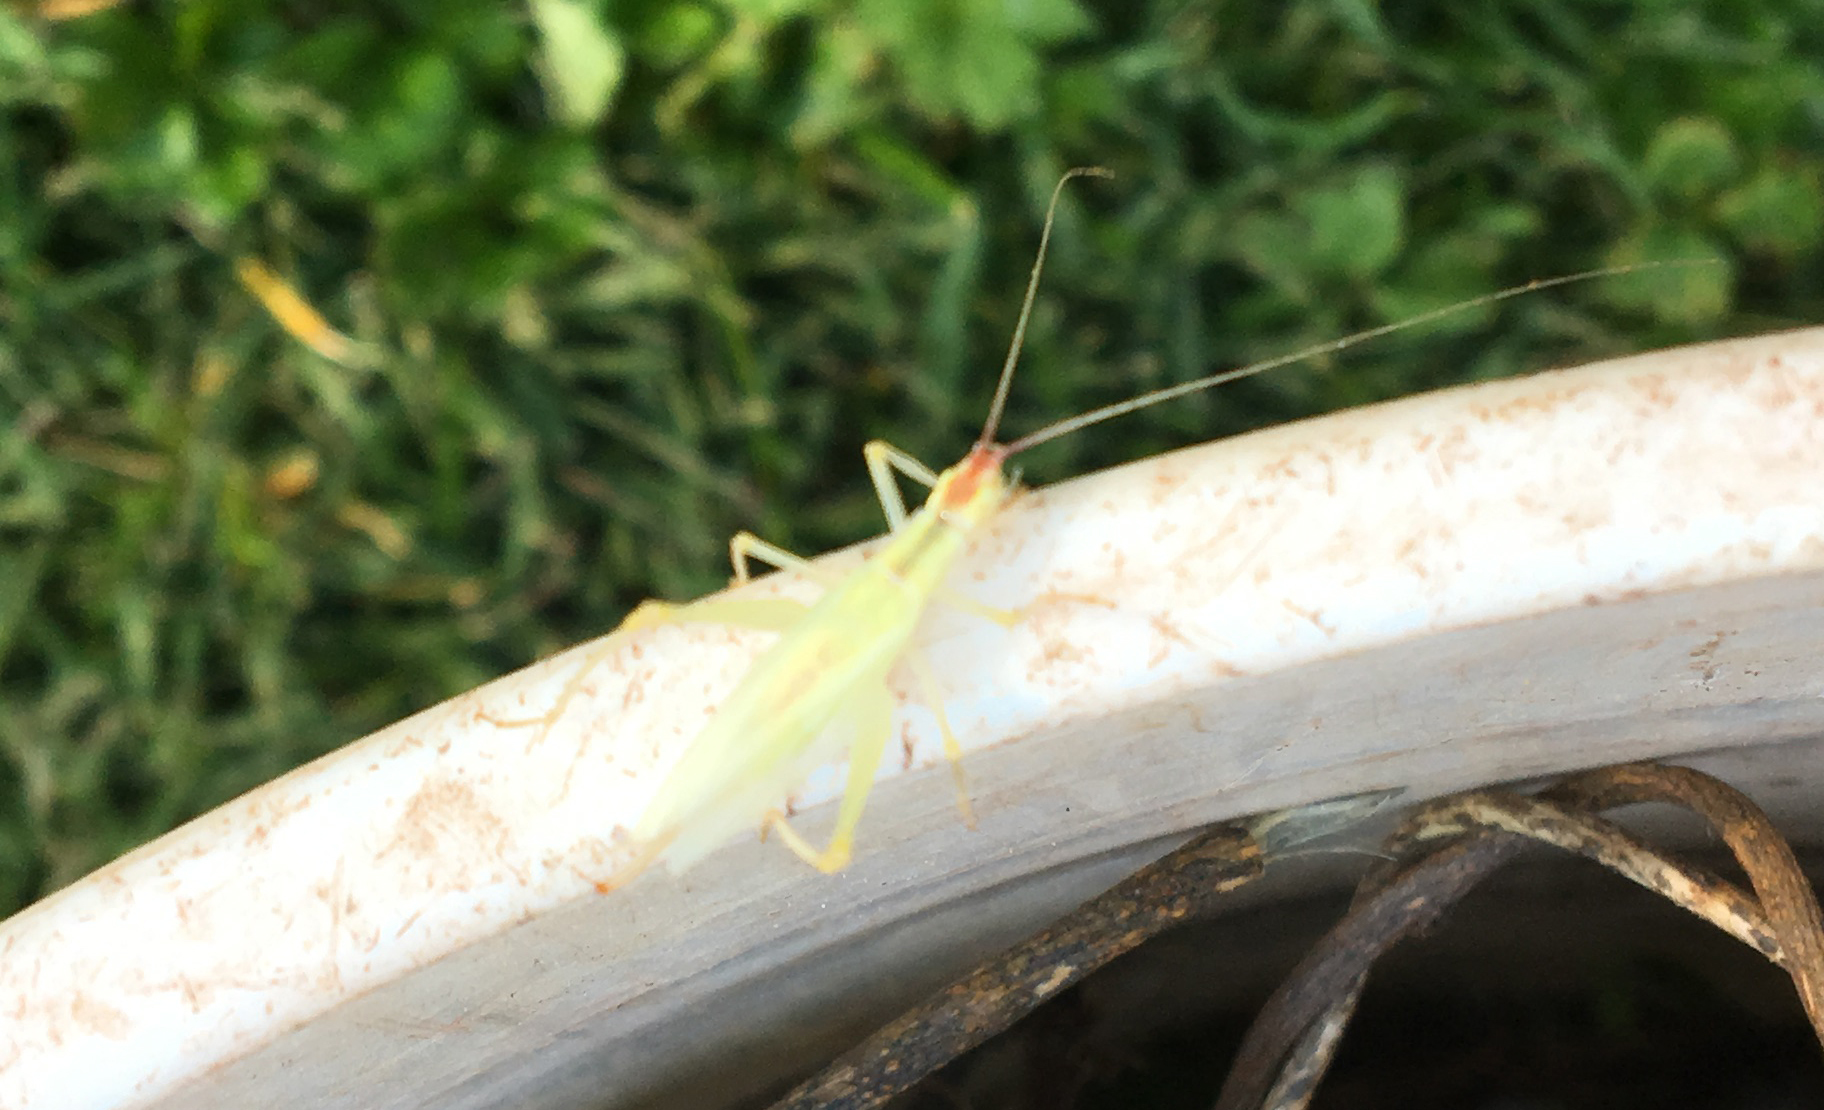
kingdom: Animalia
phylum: Arthropoda
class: Insecta
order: Orthoptera
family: Gryllidae
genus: Oecanthus
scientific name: Oecanthus latipennis
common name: Broad-winged tree cricket
